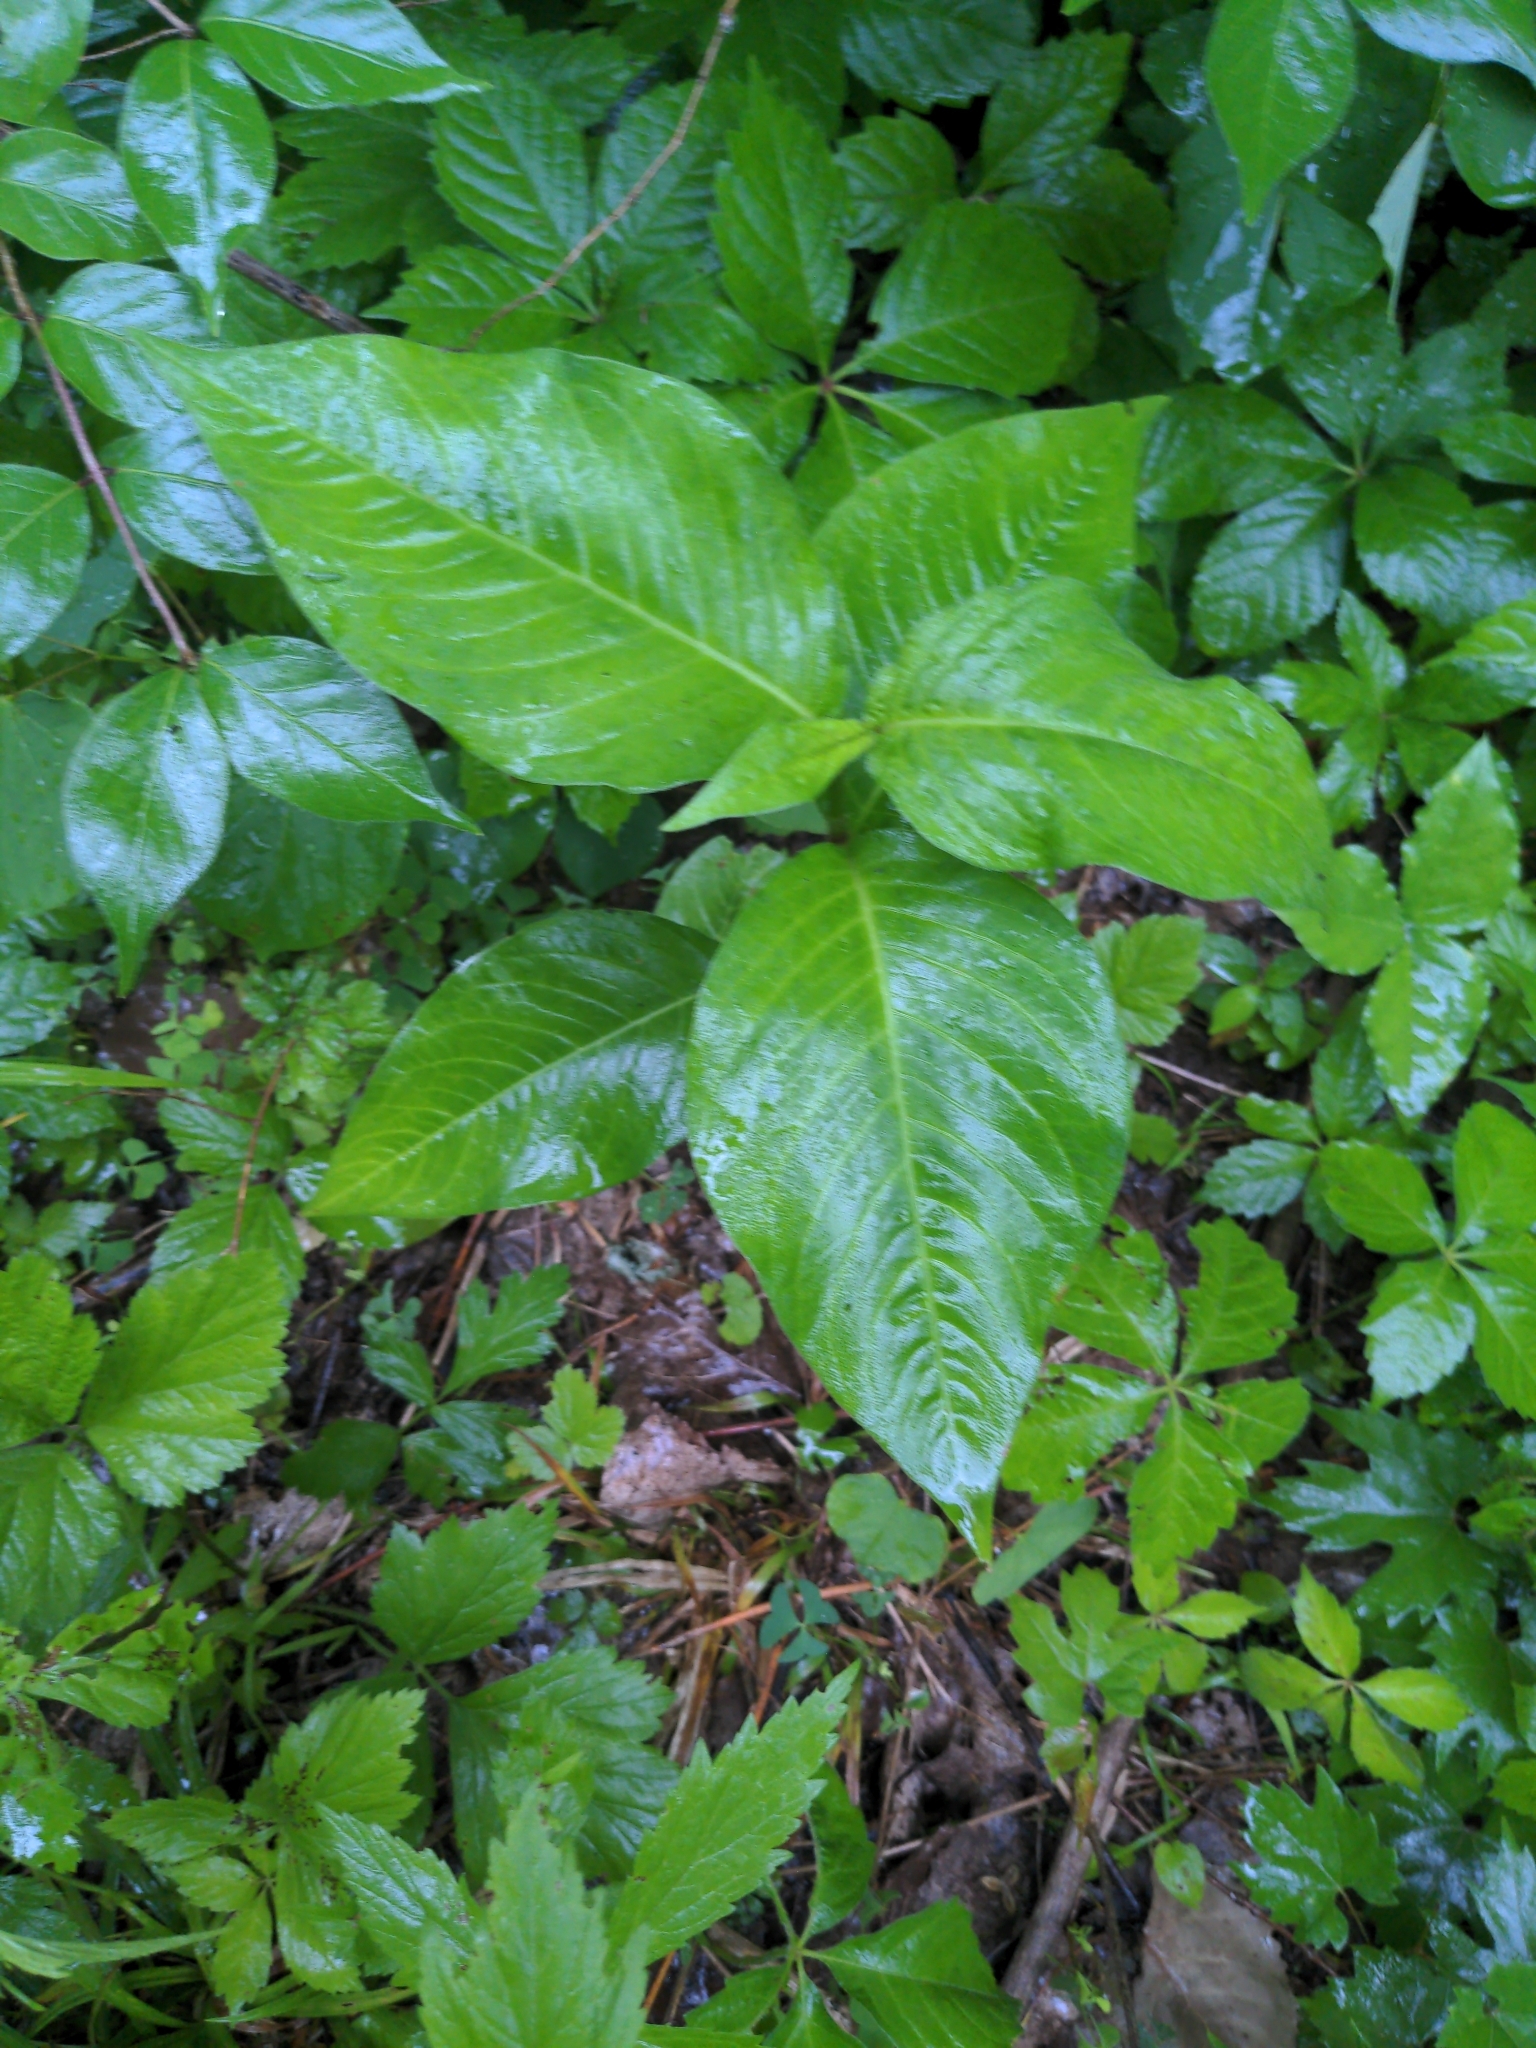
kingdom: Plantae
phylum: Tracheophyta
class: Magnoliopsida
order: Caryophyllales
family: Polygonaceae
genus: Persicaria
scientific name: Persicaria virginiana
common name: Jumpseed
